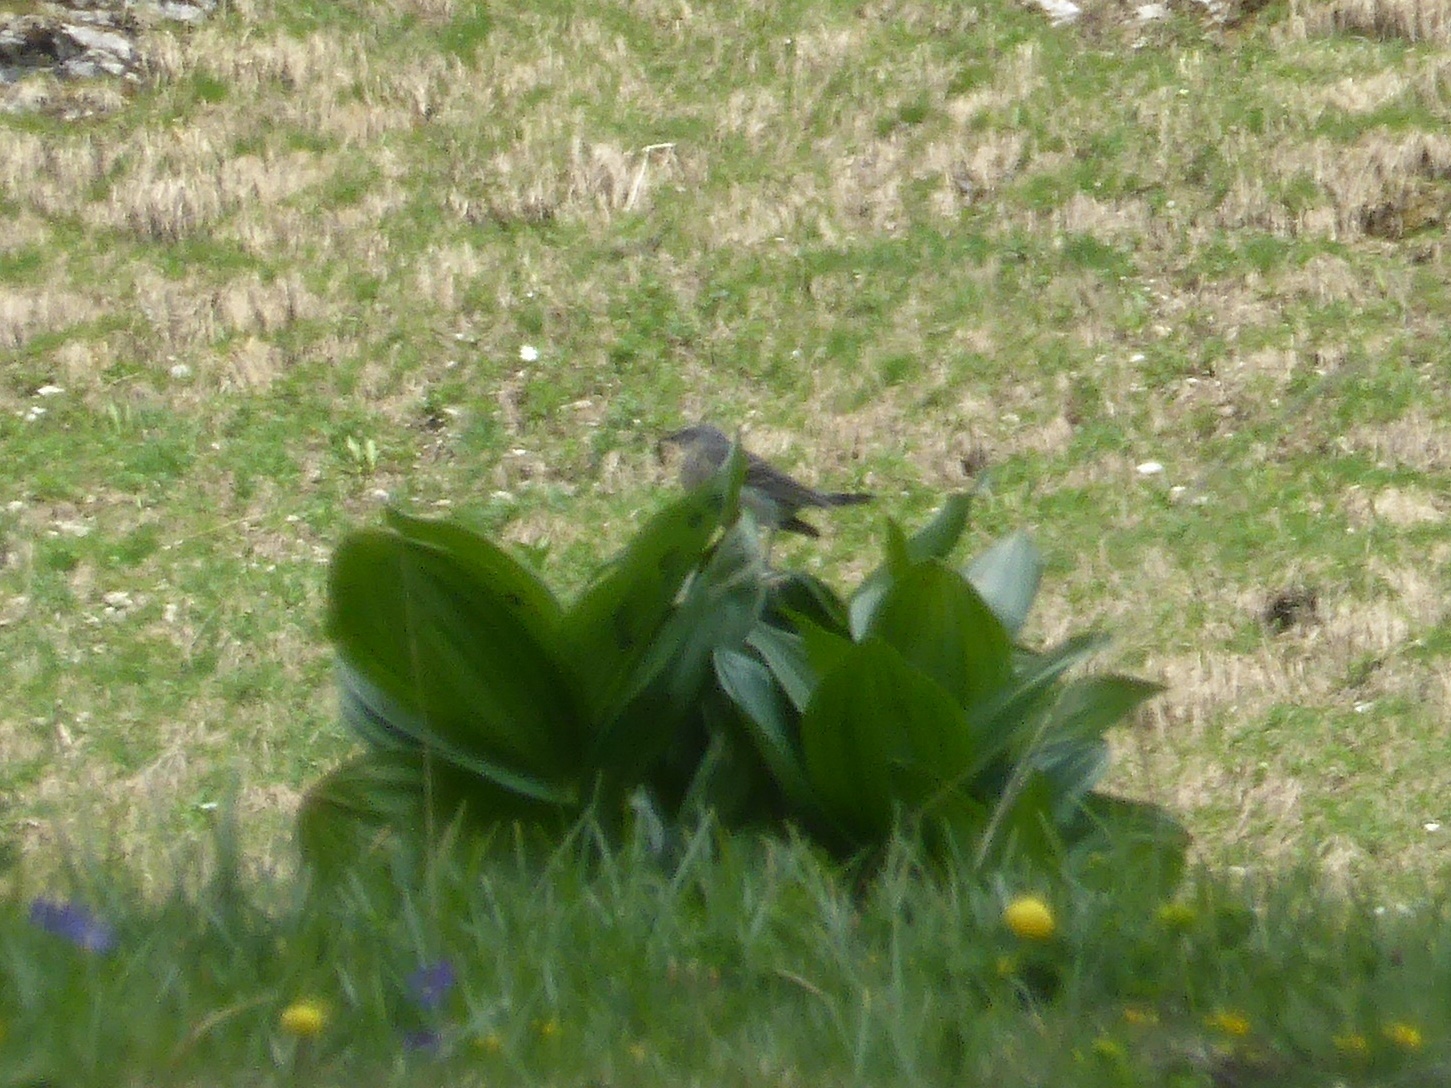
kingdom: Animalia
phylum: Chordata
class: Aves
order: Passeriformes
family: Motacillidae
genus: Anthus
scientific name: Anthus spinoletta
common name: Water pipit
